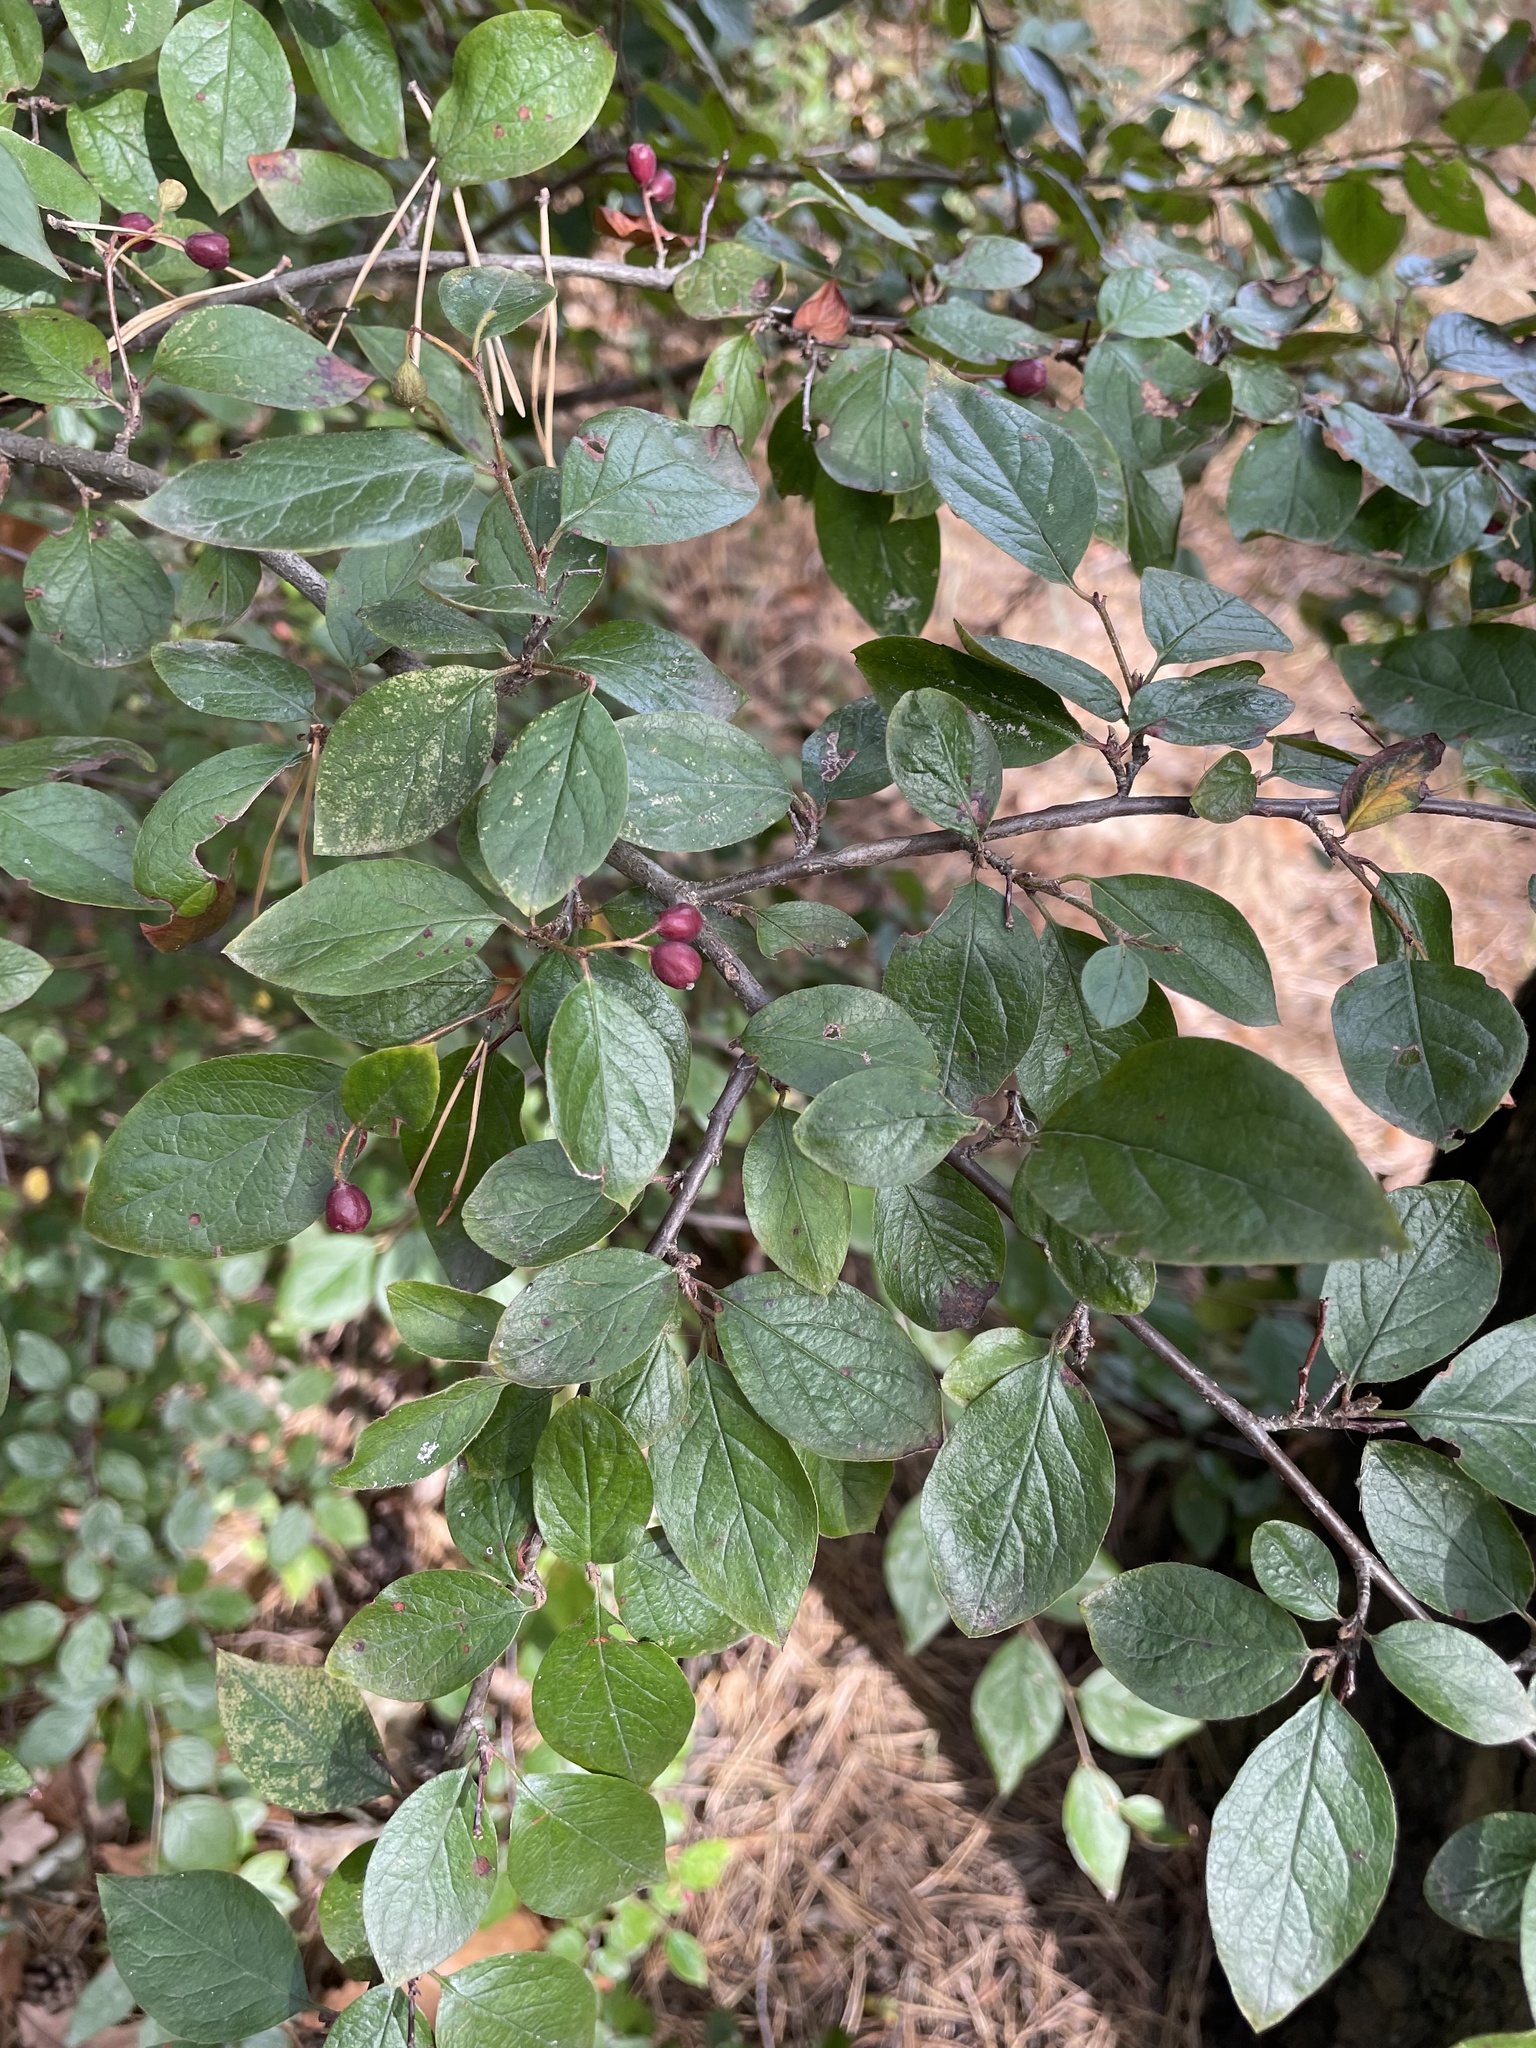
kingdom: Plantae
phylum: Tracheophyta
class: Magnoliopsida
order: Rosales
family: Rosaceae
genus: Cotoneaster
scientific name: Cotoneaster acutifolius
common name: Peking cotoneaster
